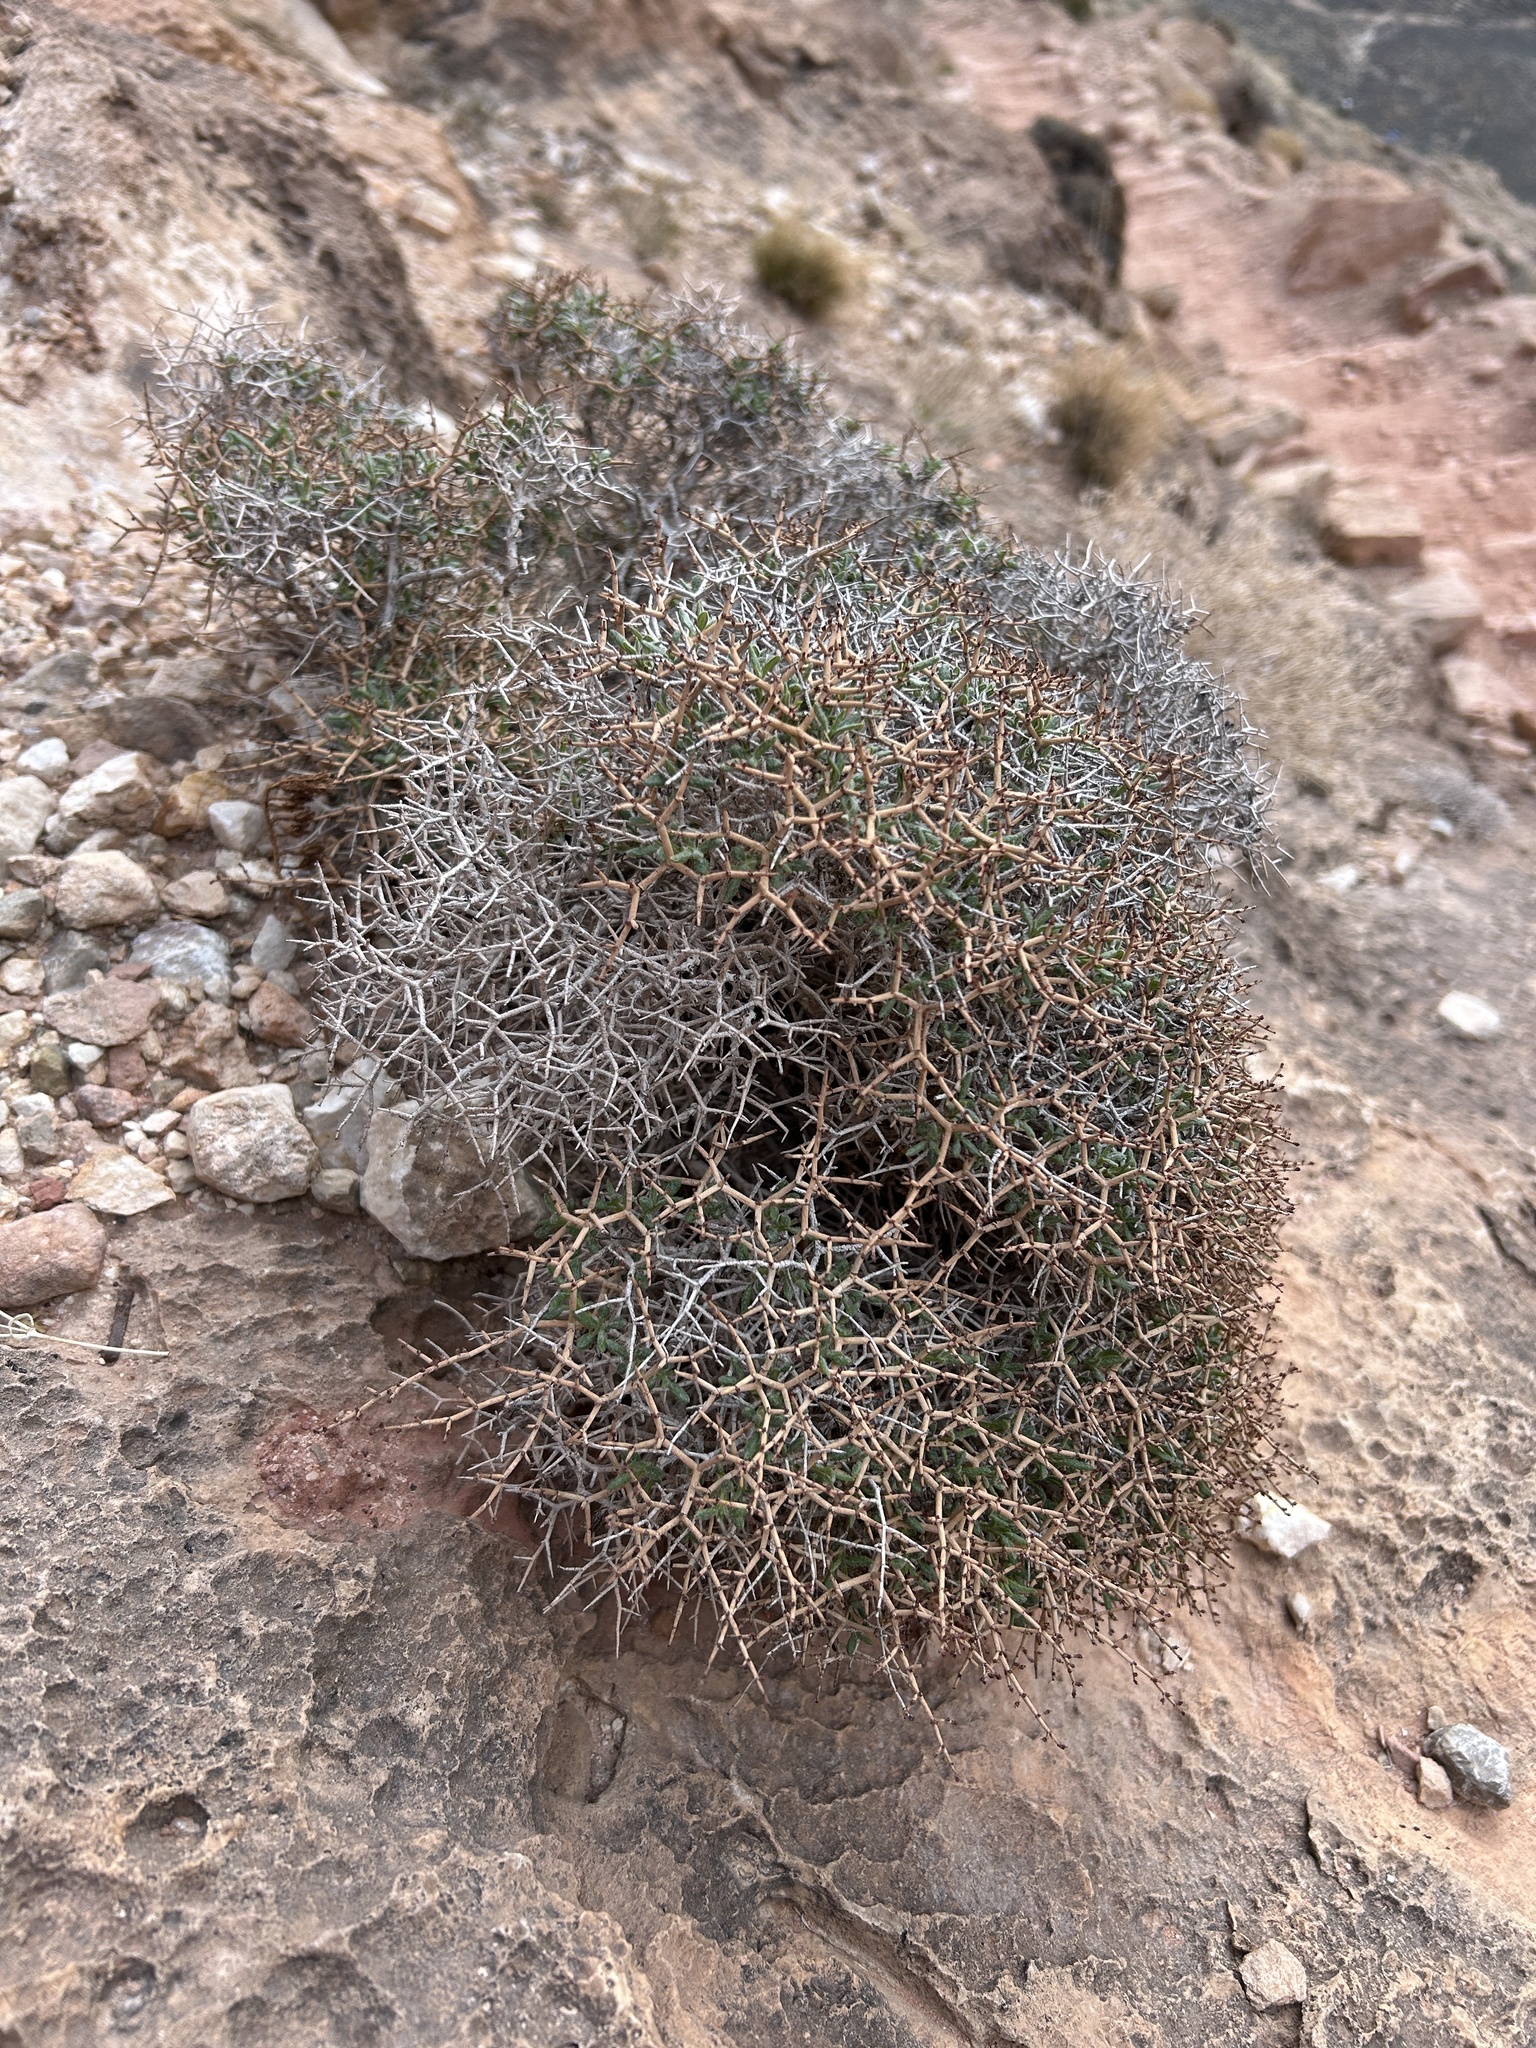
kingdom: Plantae
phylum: Tracheophyta
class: Magnoliopsida
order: Caryophyllales
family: Polygonaceae
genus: Eriogonum
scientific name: Eriogonum heermannii
